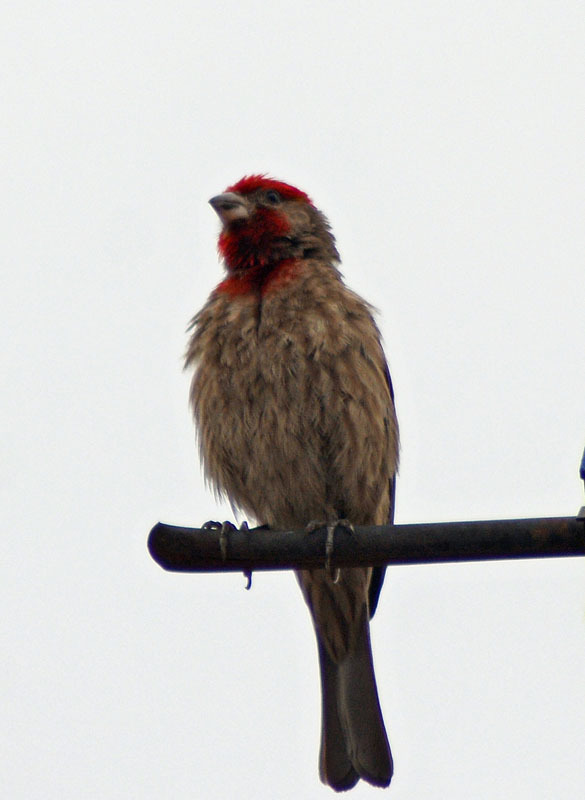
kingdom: Animalia
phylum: Chordata
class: Aves
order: Passeriformes
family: Fringillidae
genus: Haemorhous
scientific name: Haemorhous mexicanus
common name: House finch
